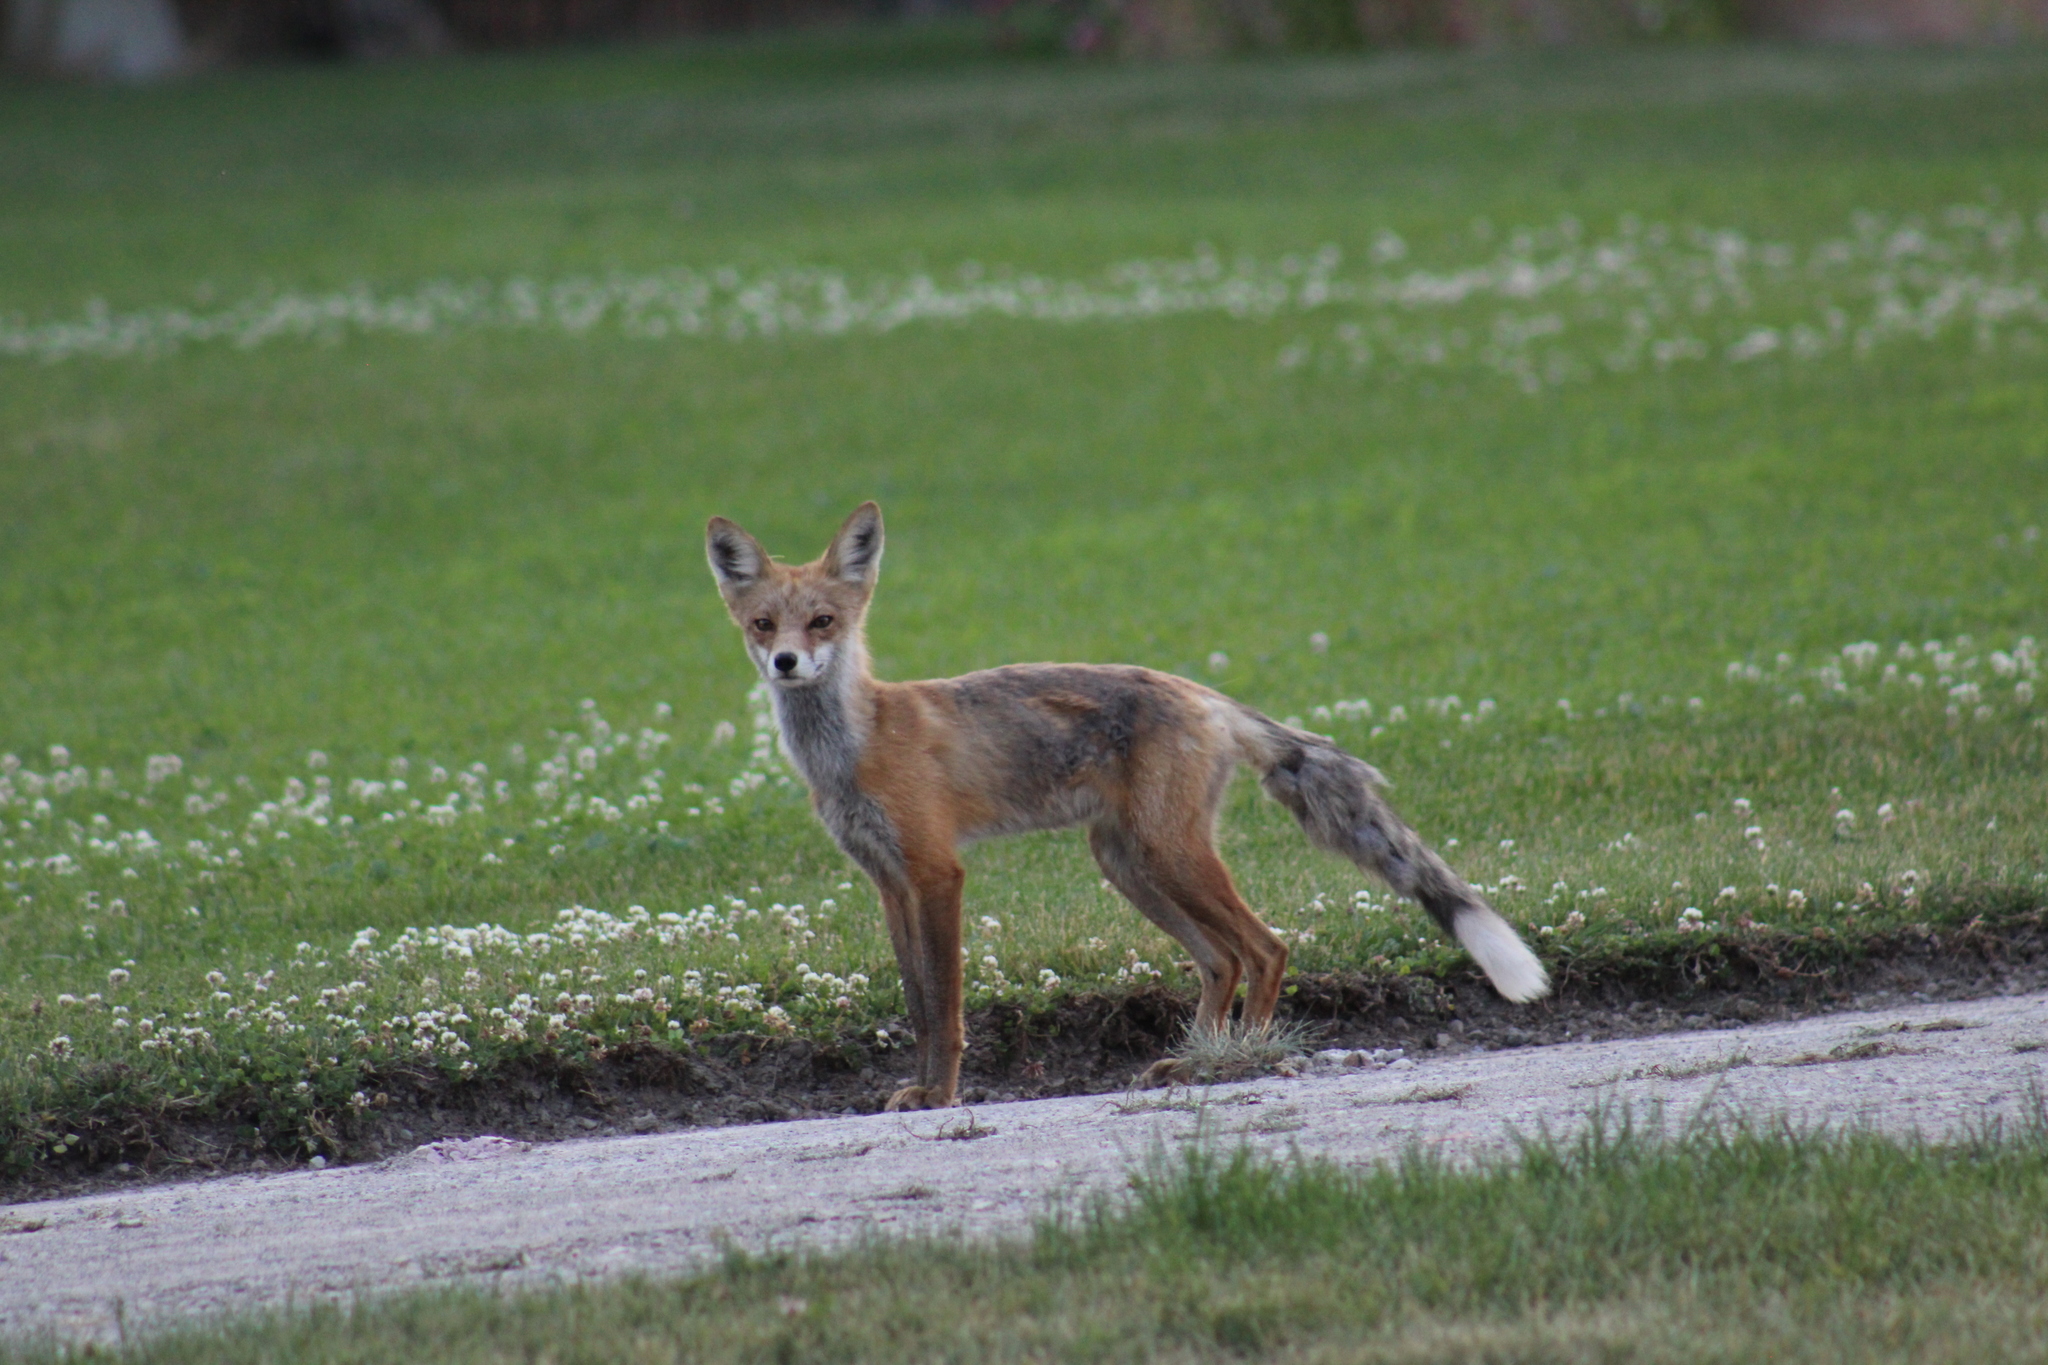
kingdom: Animalia
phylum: Chordata
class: Mammalia
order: Carnivora
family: Canidae
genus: Vulpes
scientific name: Vulpes vulpes
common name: Red fox
